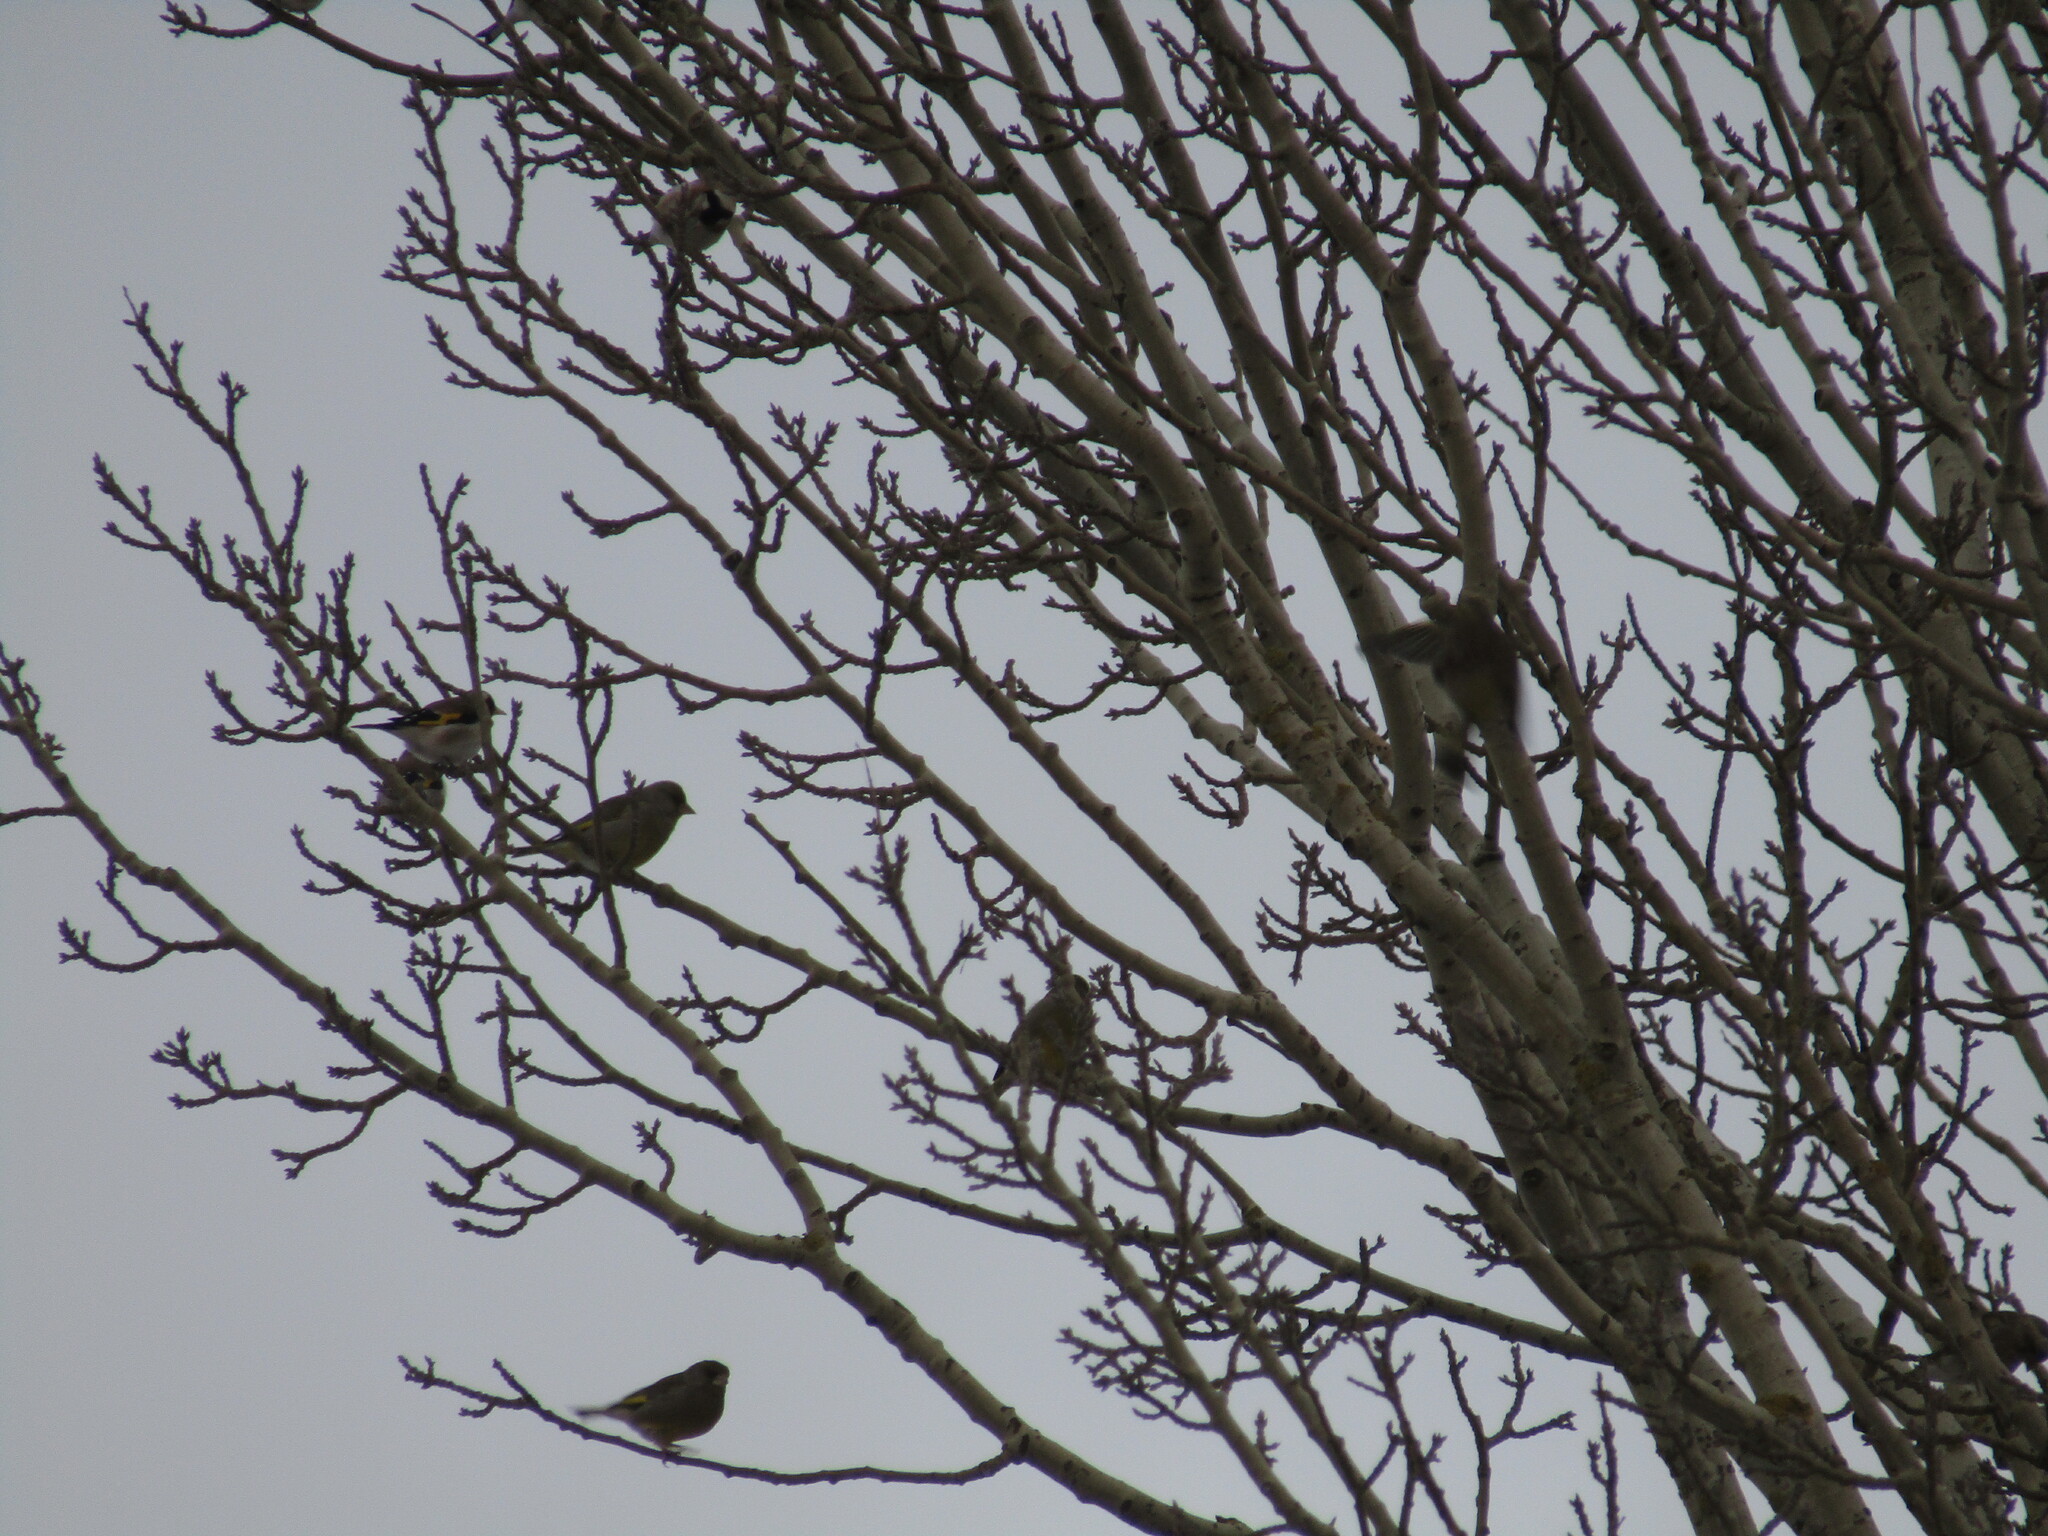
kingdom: Animalia
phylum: Chordata
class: Aves
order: Passeriformes
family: Fringillidae
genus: Carduelis
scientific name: Carduelis carduelis
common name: European goldfinch
